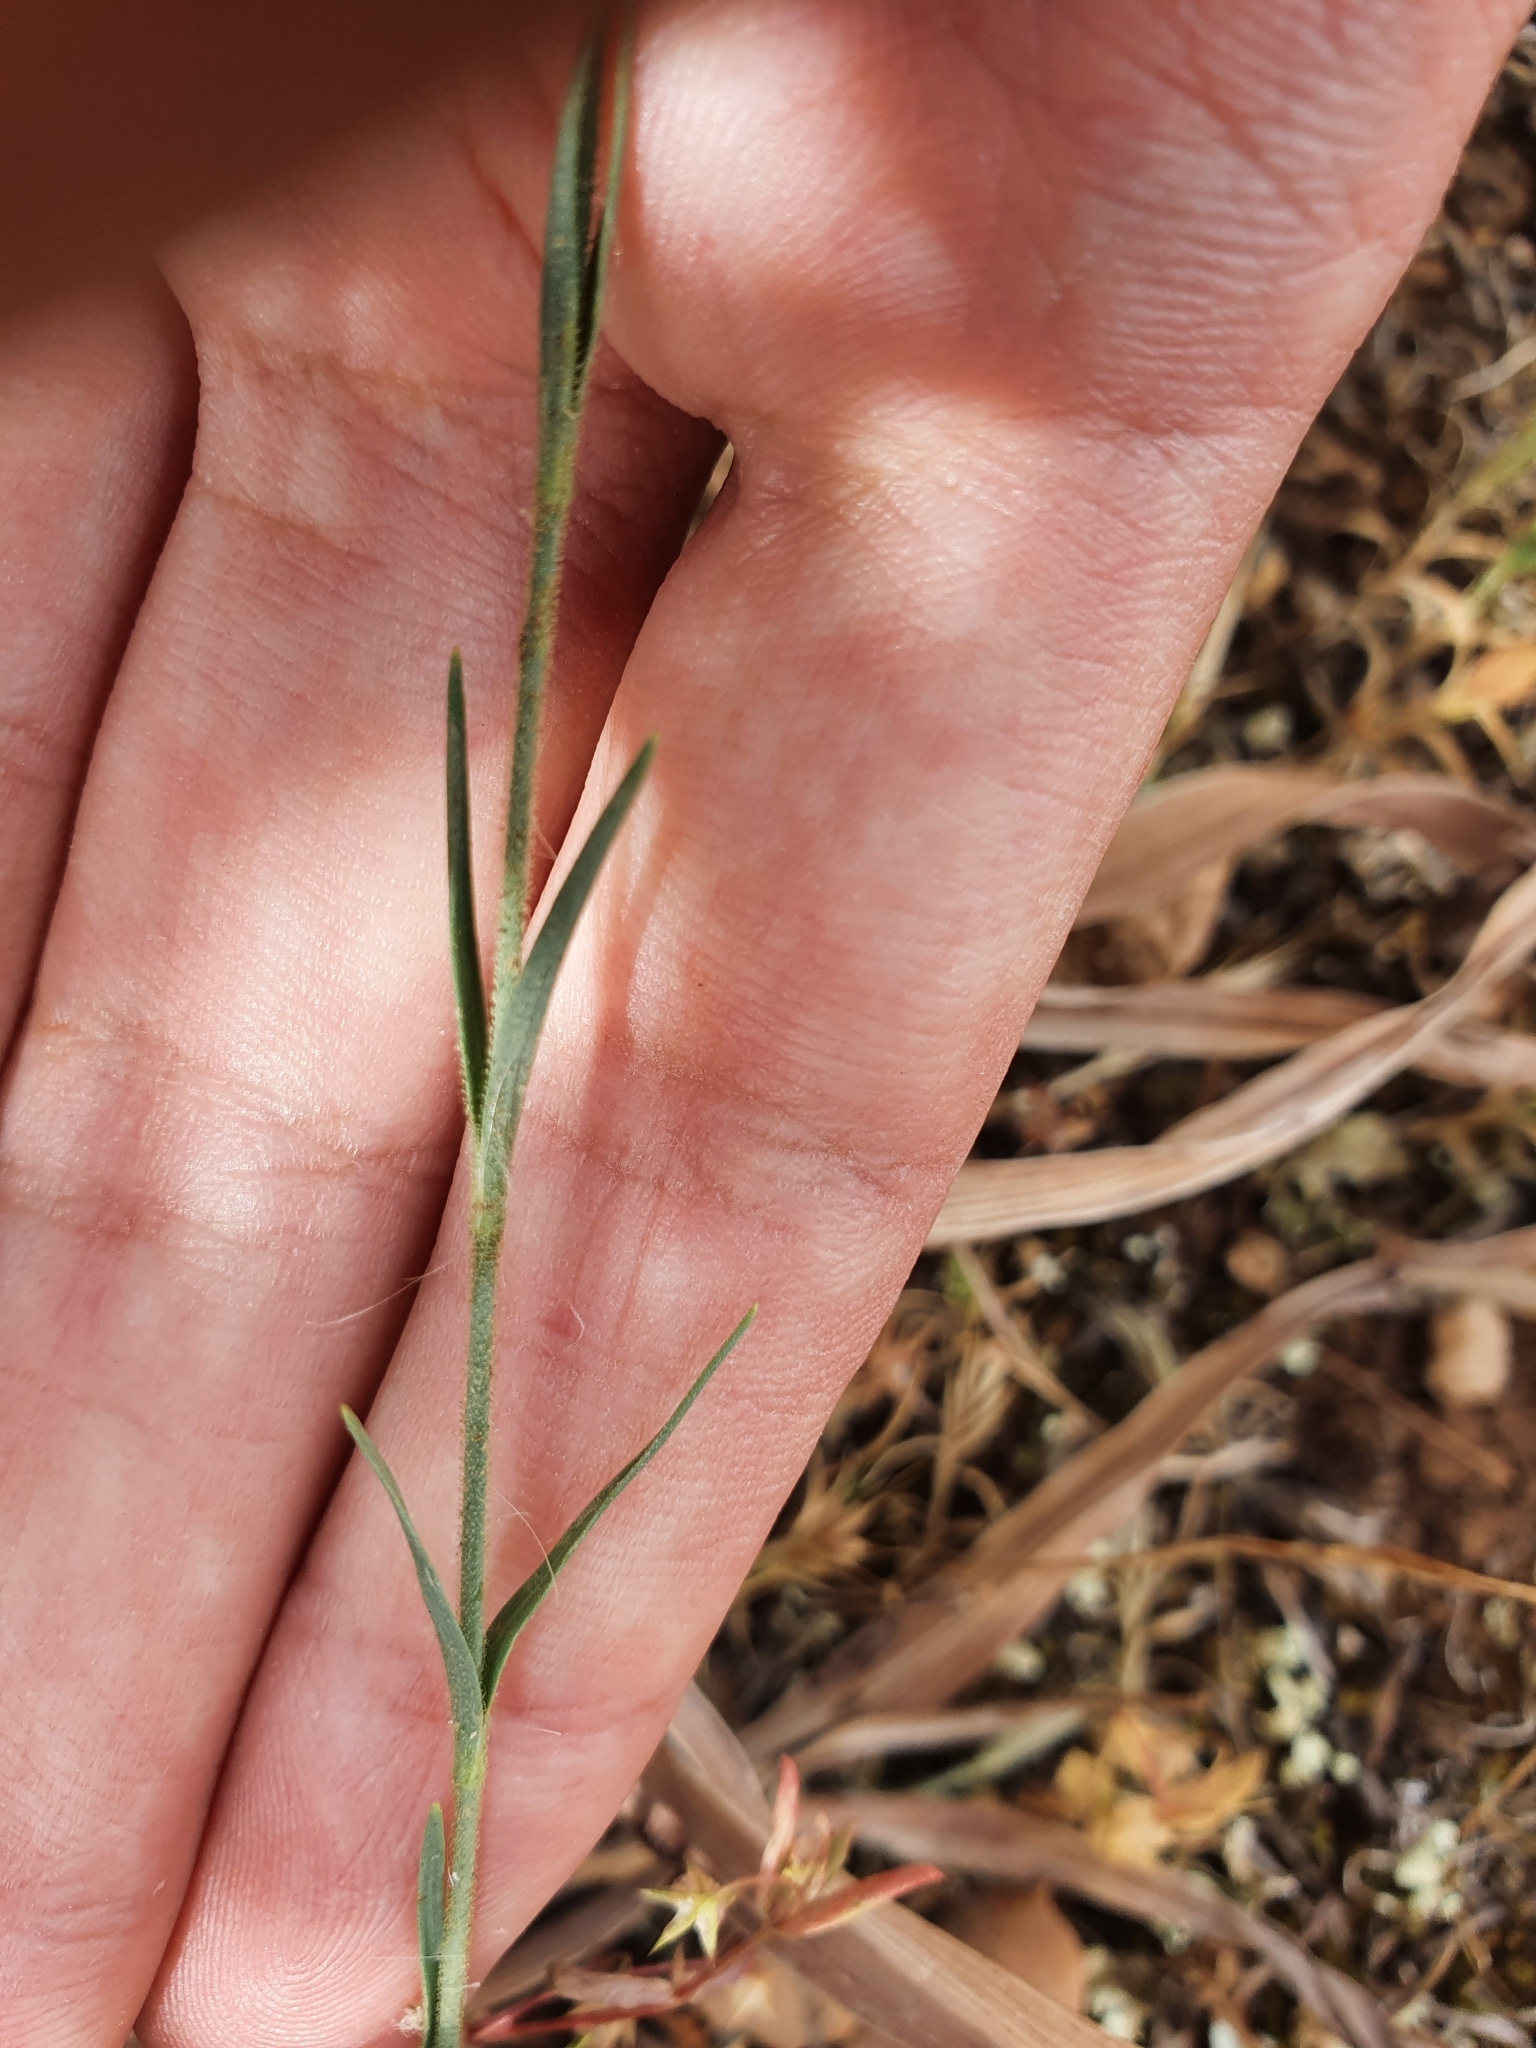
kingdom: Plantae
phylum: Tracheophyta
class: Magnoliopsida
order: Caryophyllales
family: Caryophyllaceae
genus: Dianthus
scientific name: Dianthus illyricus
